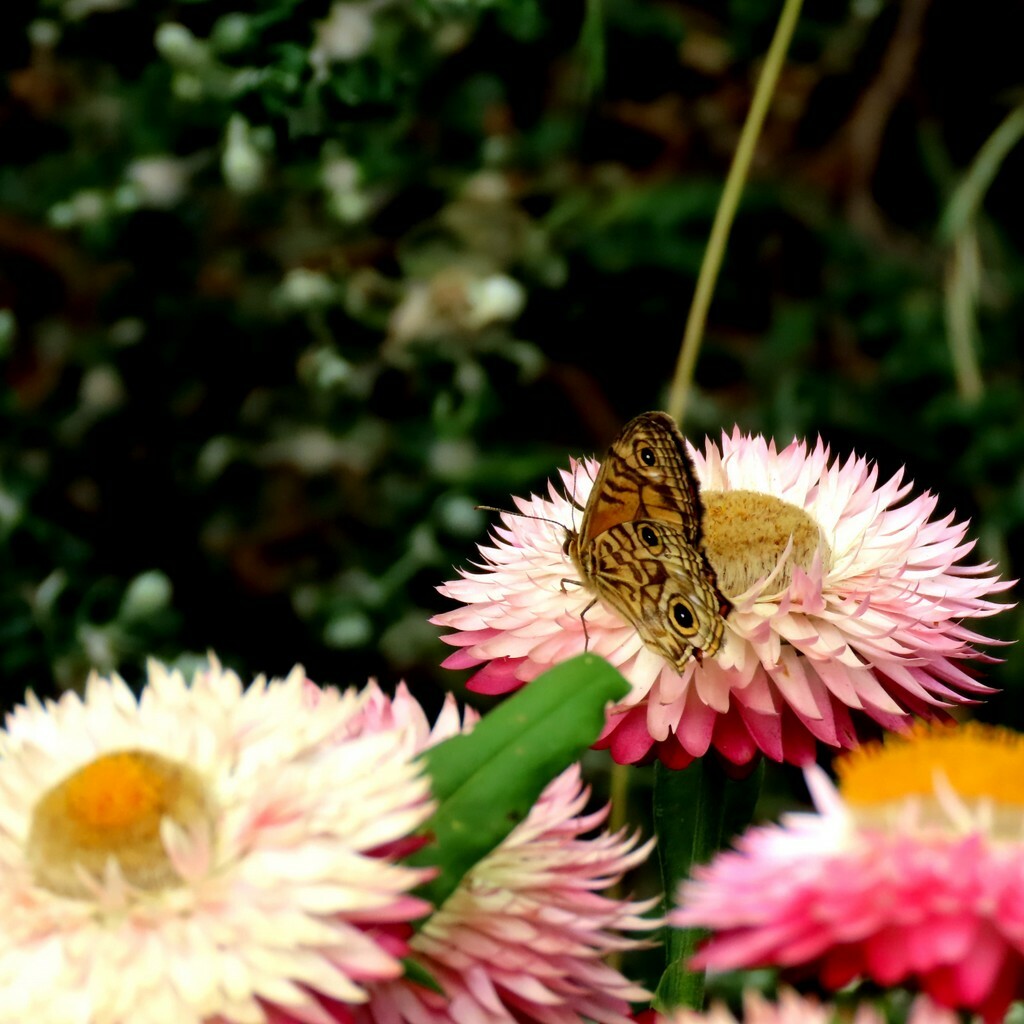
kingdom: Animalia
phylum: Arthropoda
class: Insecta
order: Lepidoptera
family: Nymphalidae
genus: Geitoneura
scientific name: Geitoneura acantha
